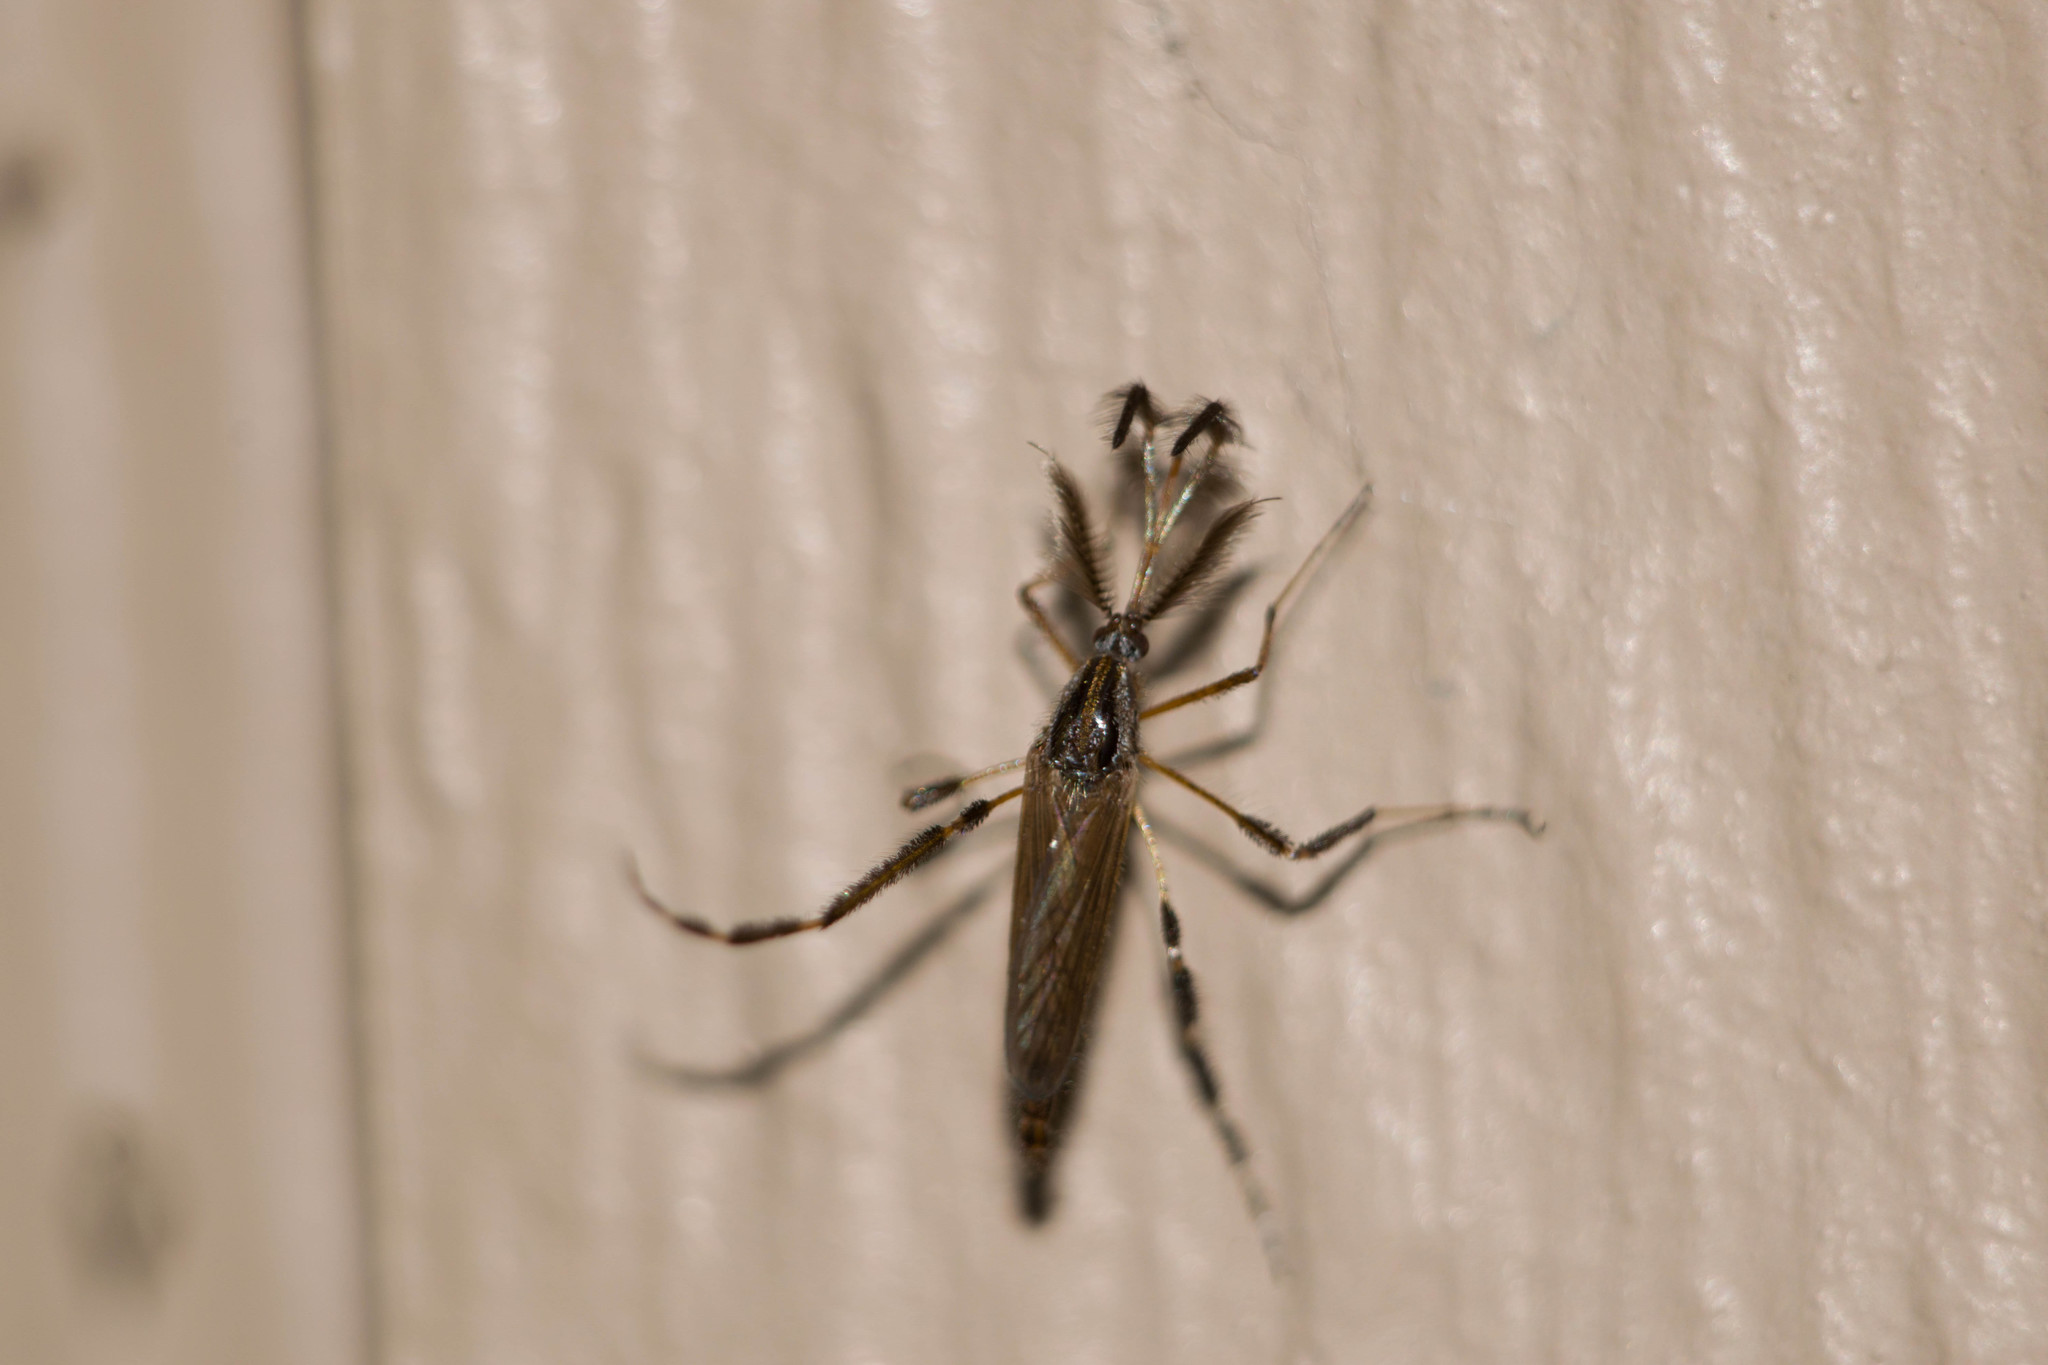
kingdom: Animalia
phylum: Arthropoda
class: Insecta
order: Diptera
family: Culicidae
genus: Psorophora
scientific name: Psorophora ciliata
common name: Gallinipper
